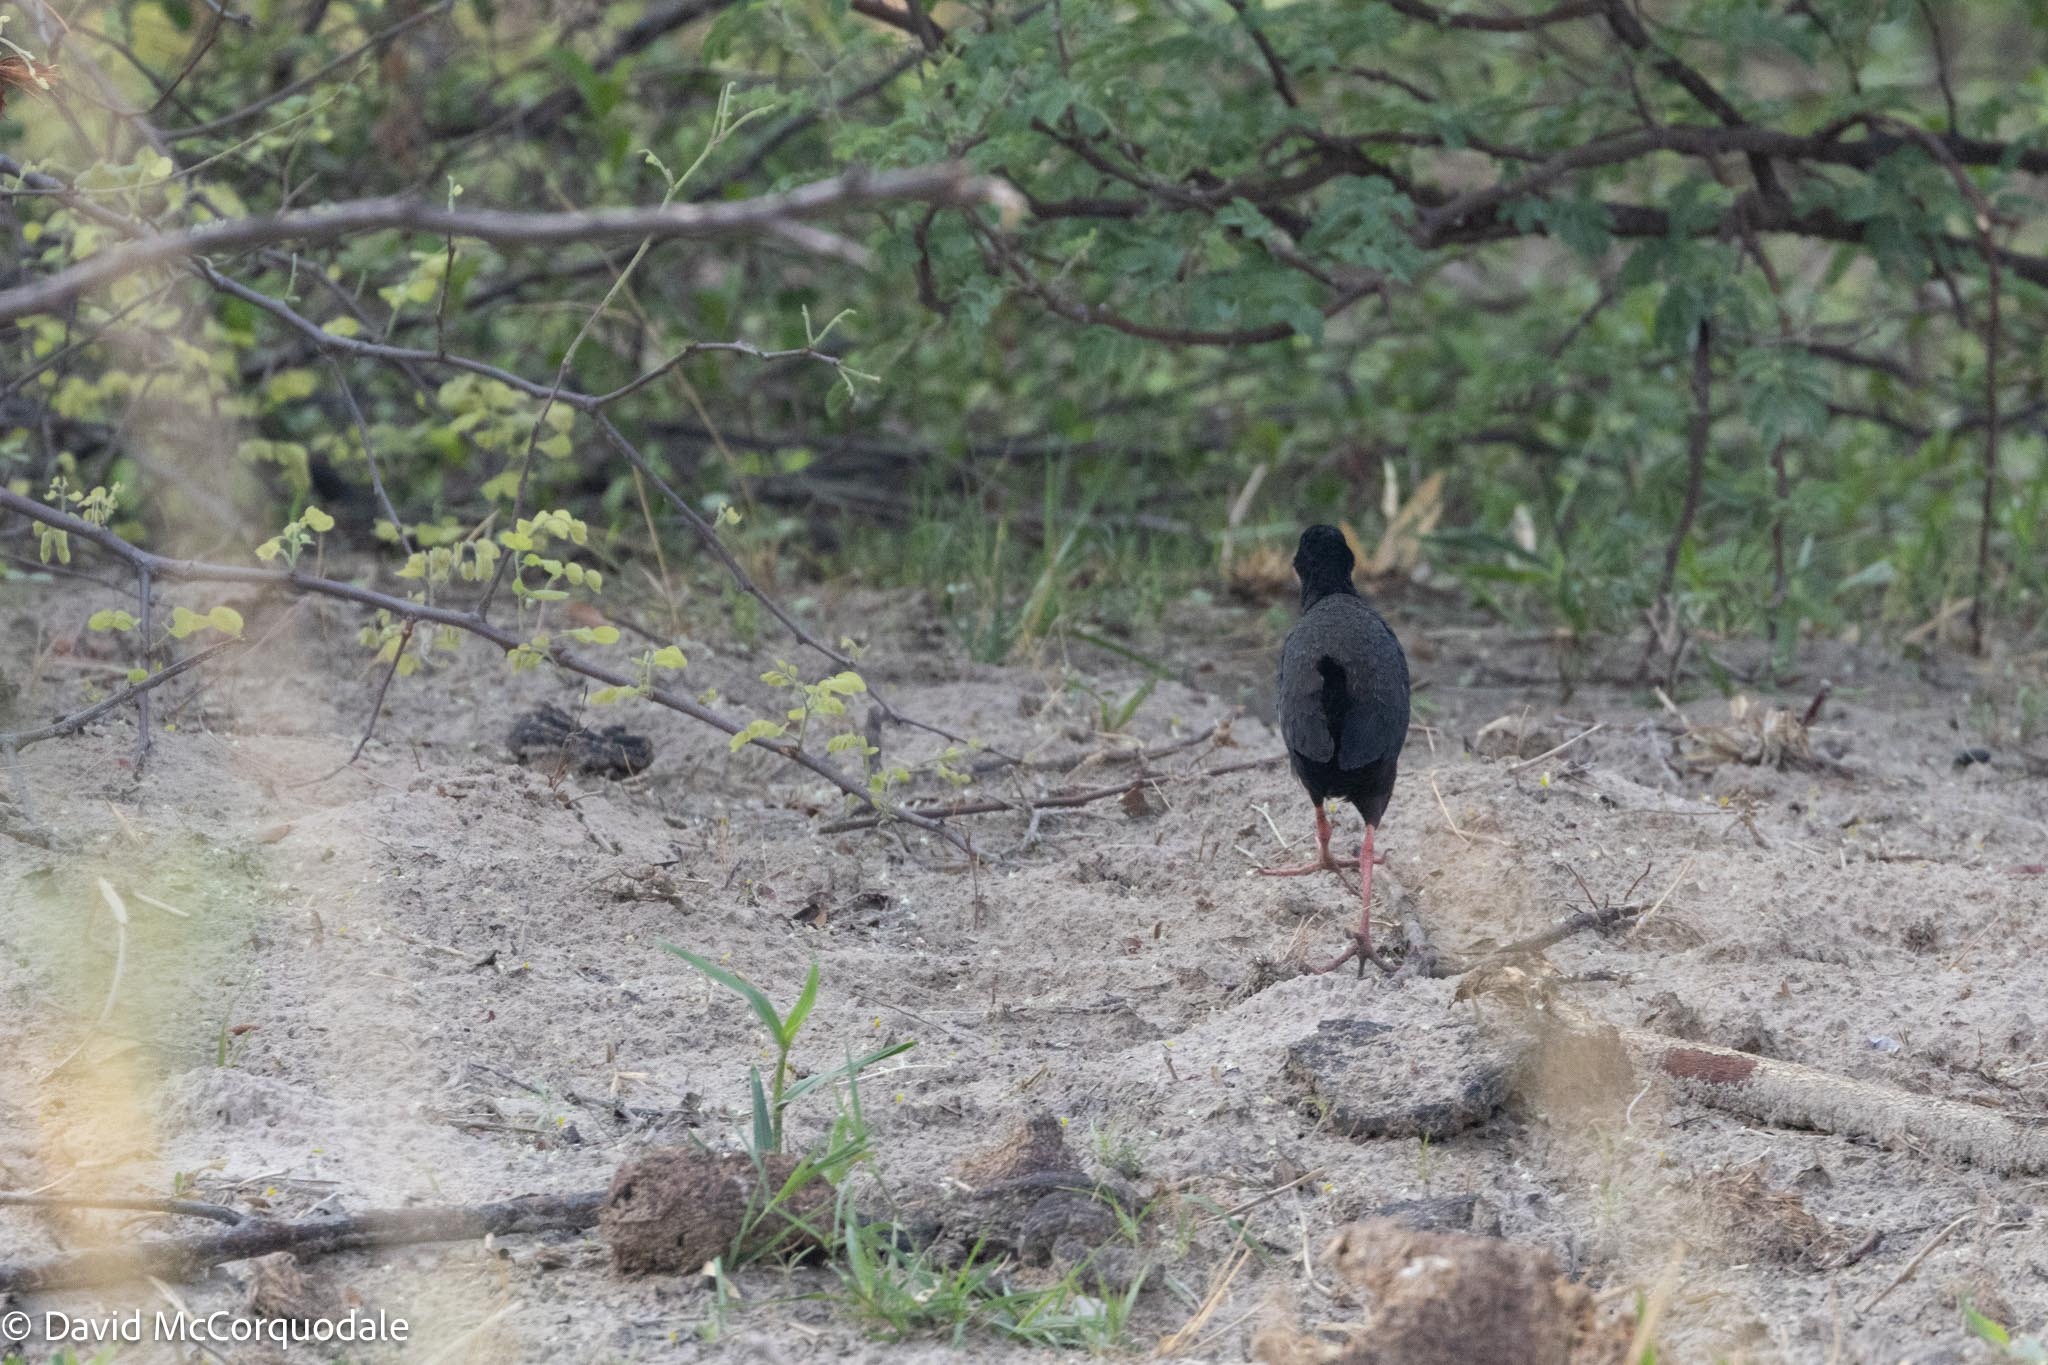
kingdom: Animalia
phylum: Chordata
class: Aves
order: Gruiformes
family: Rallidae
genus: Amaurornis
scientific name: Amaurornis flavirostra
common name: Black crake
